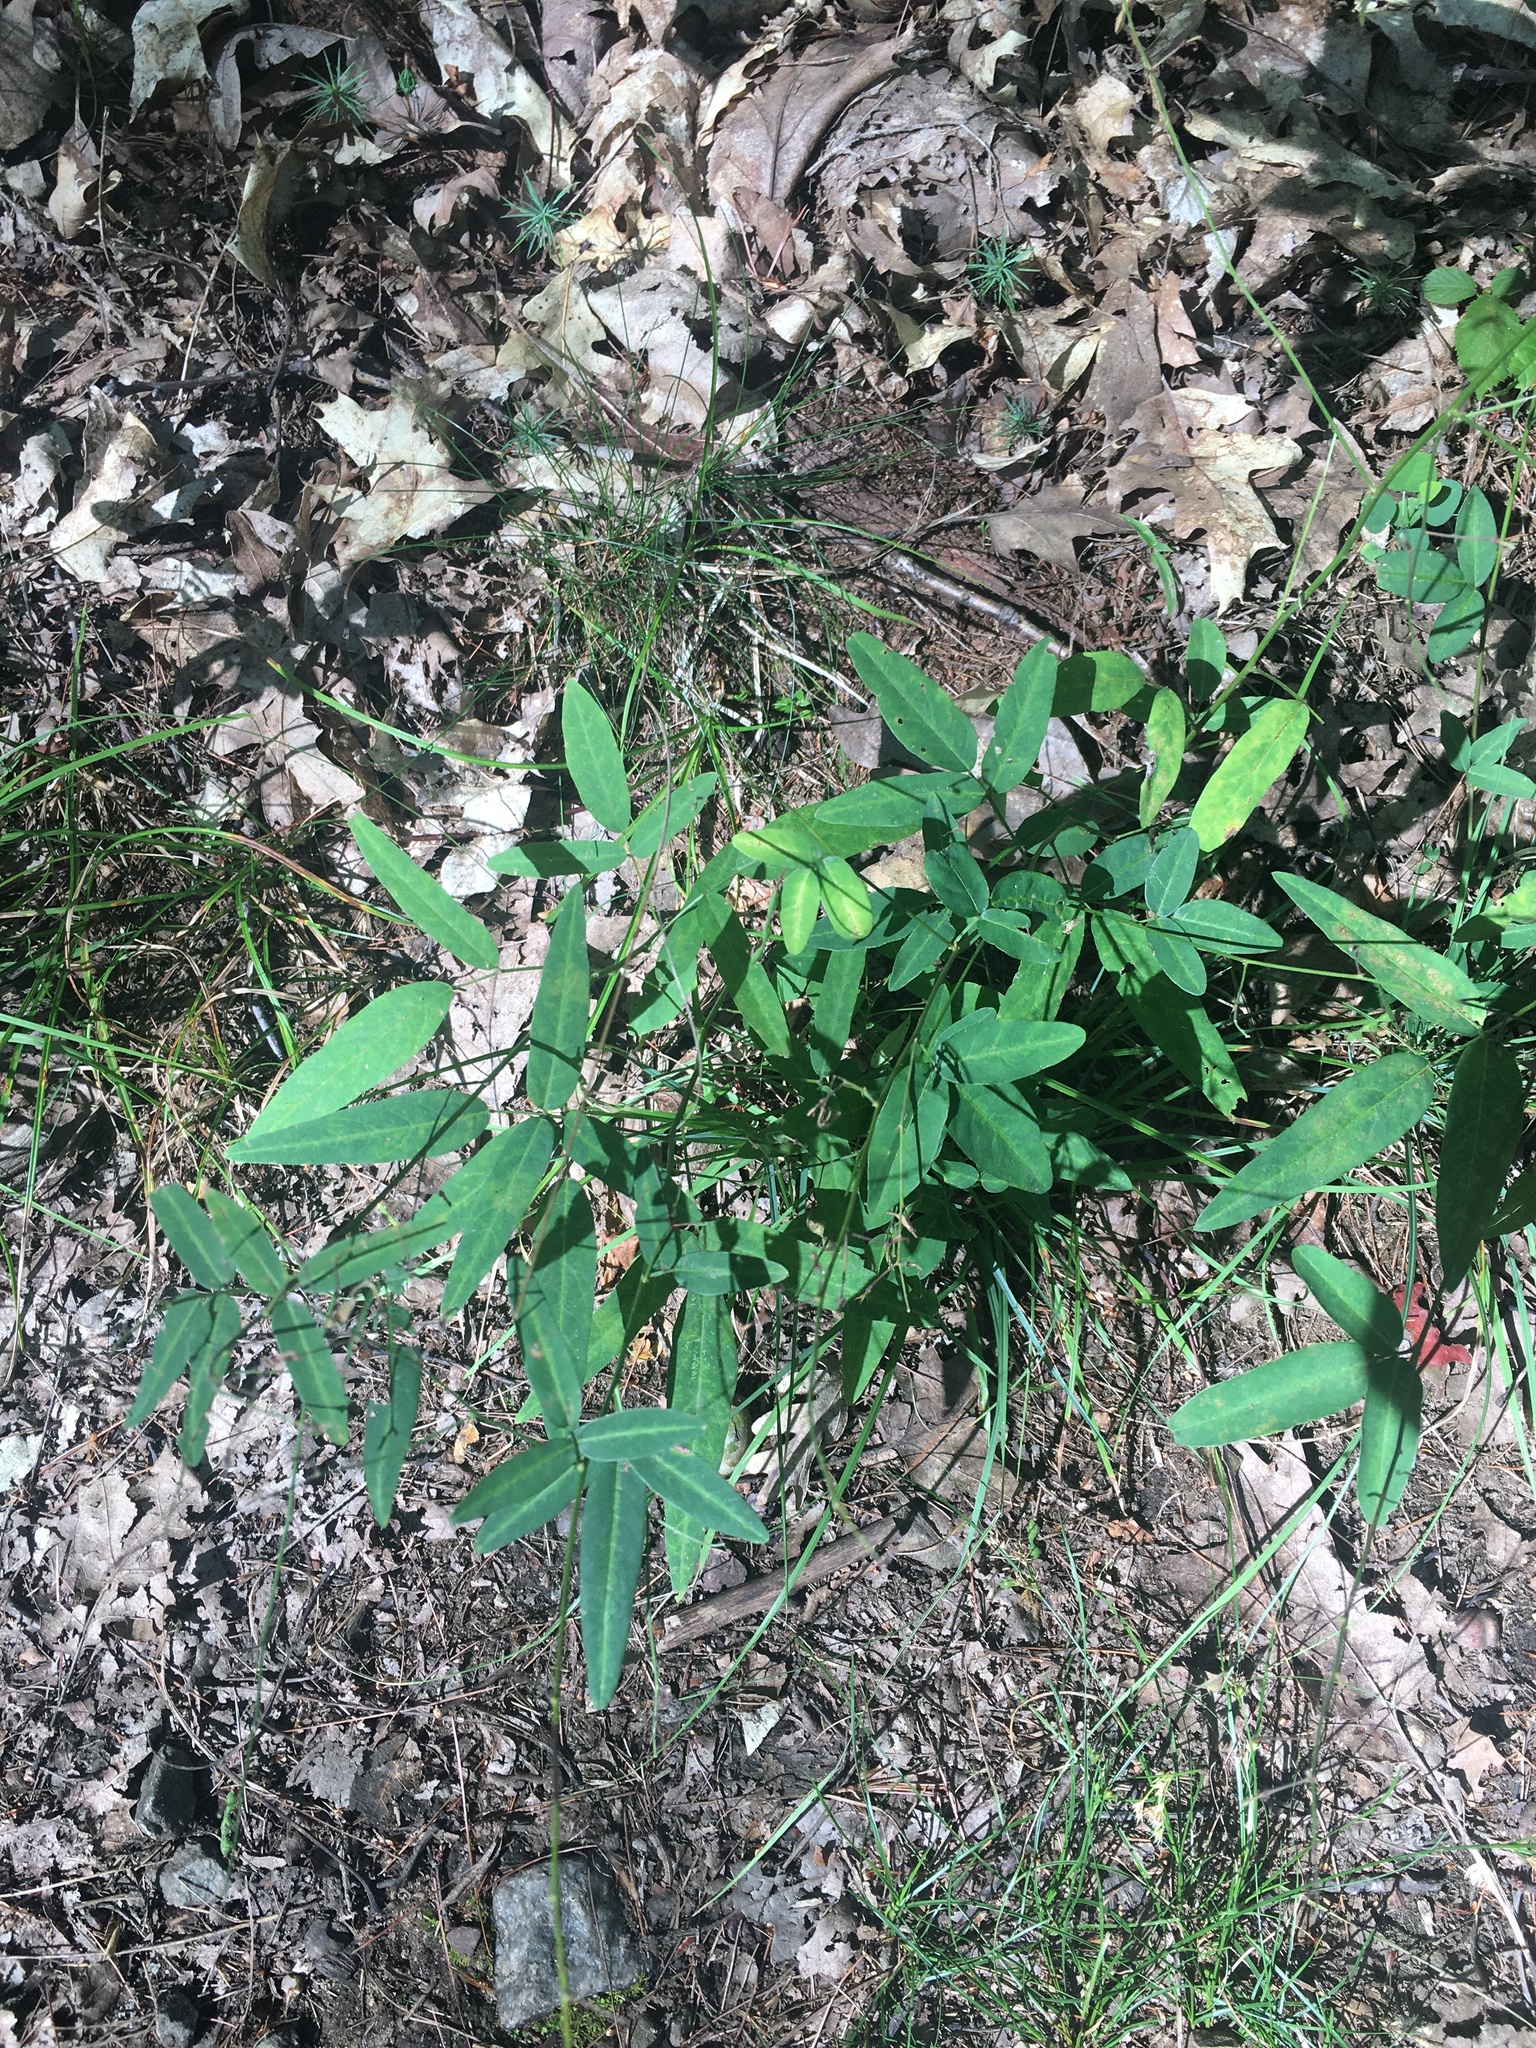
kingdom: Plantae
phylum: Tracheophyta
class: Magnoliopsida
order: Fabales
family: Fabaceae
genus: Desmodium
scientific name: Desmodium paniculatum
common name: Panicled tick-clover
